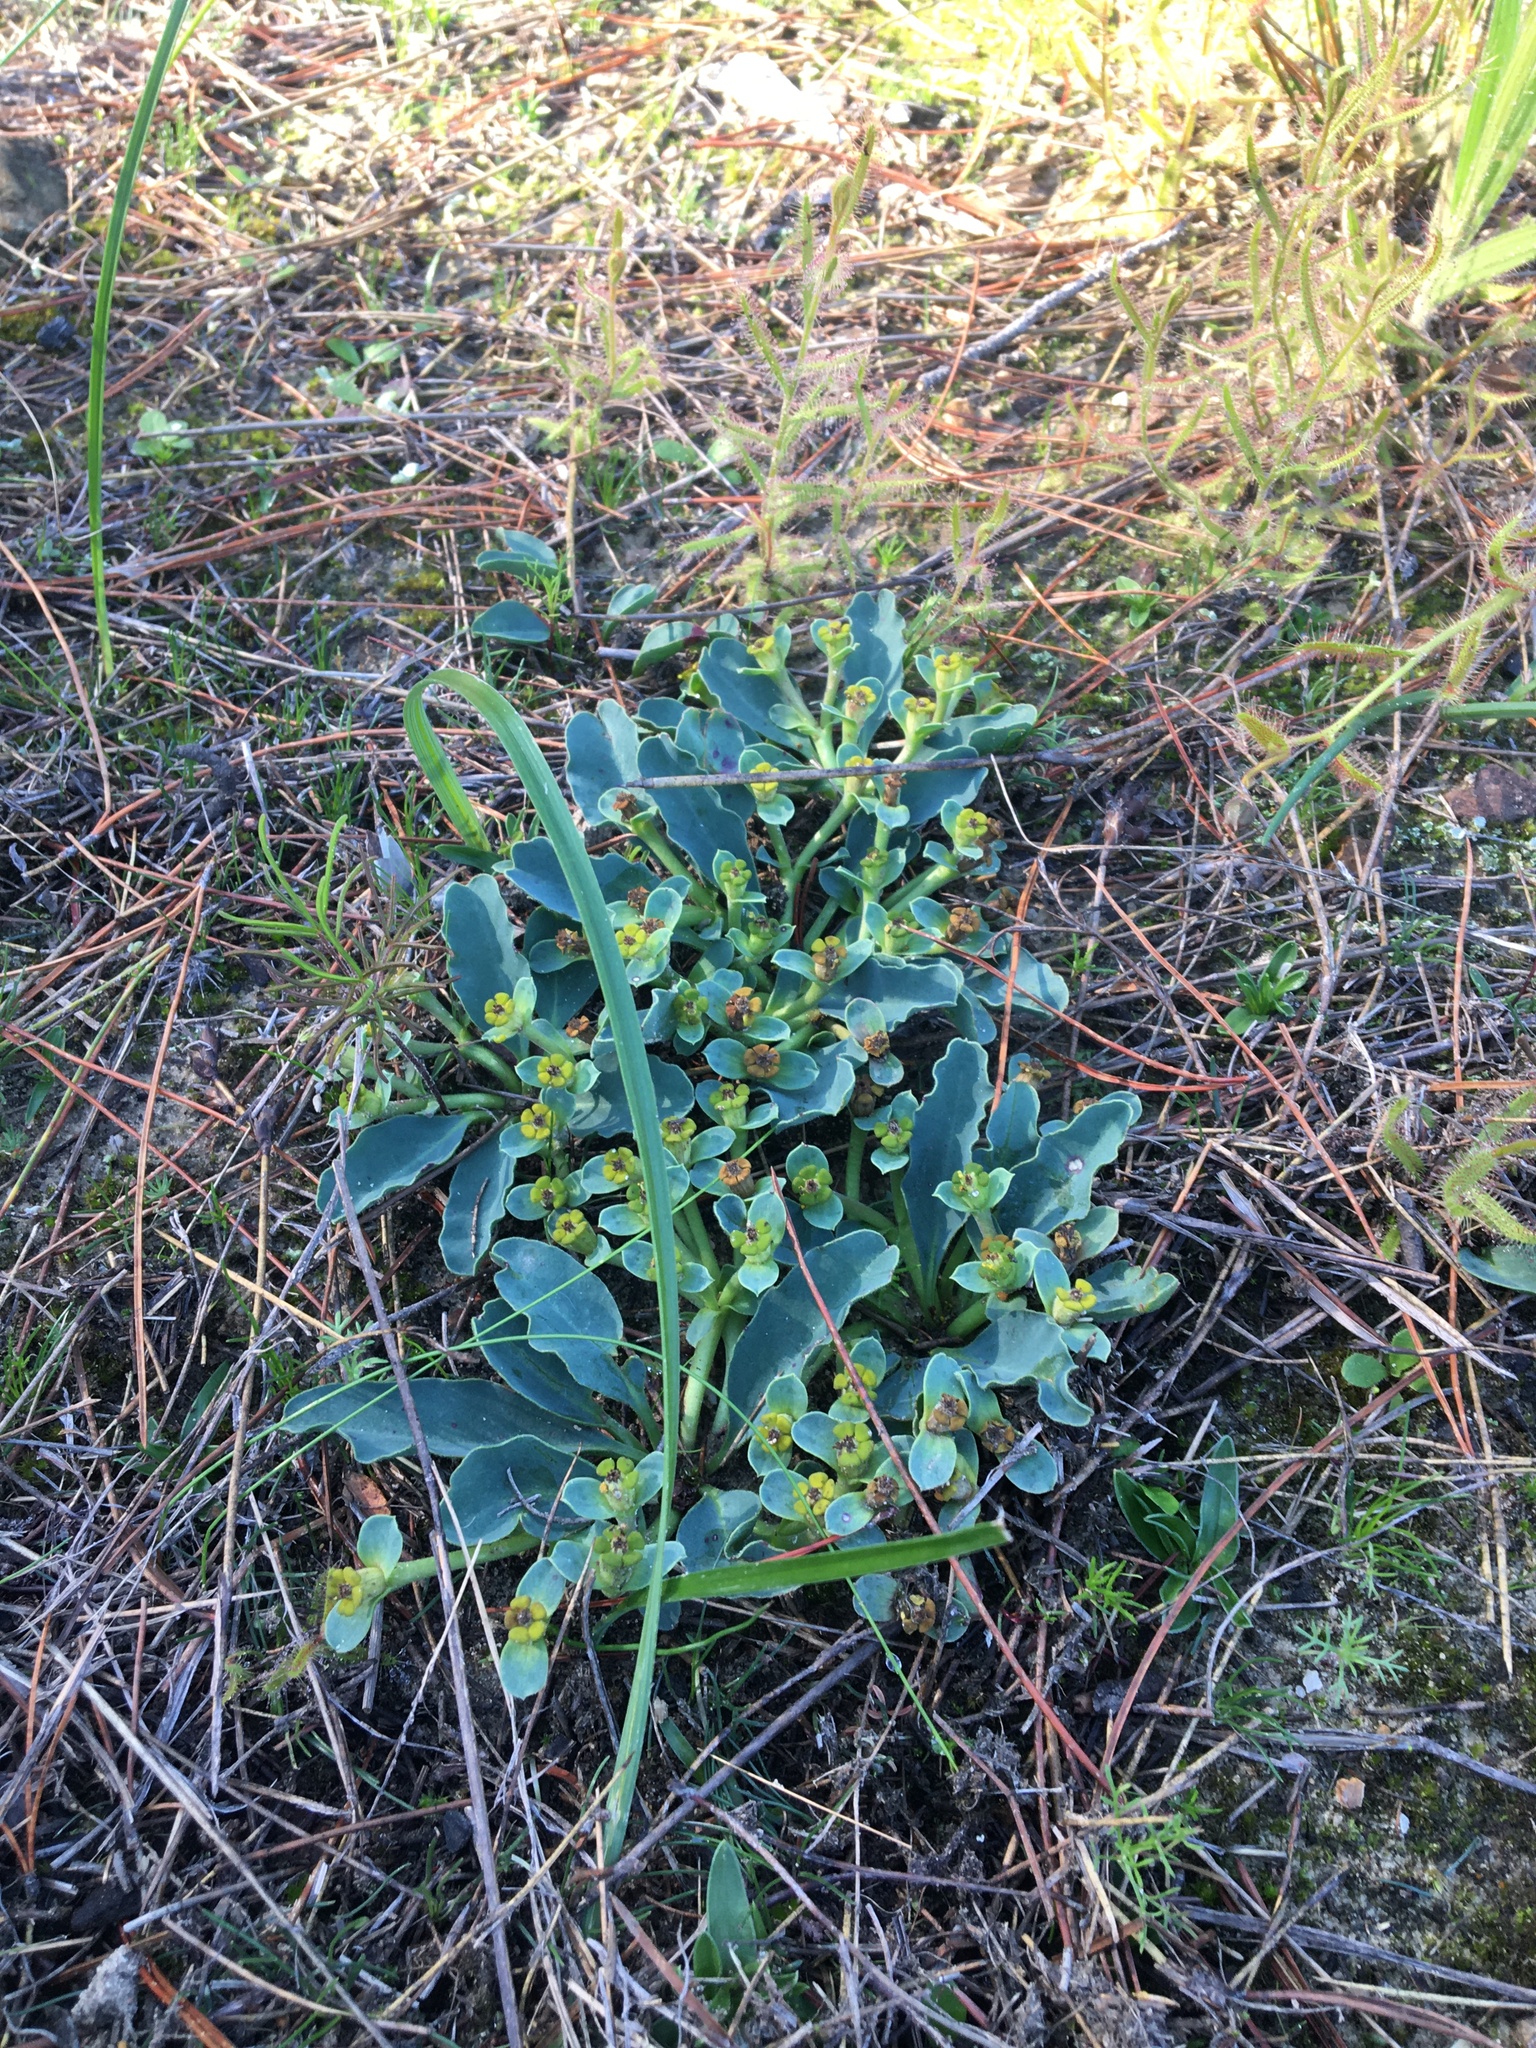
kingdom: Plantae
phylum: Tracheophyta
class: Magnoliopsida
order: Malpighiales
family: Euphorbiaceae
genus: Euphorbia
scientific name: Euphorbia tuberosa
